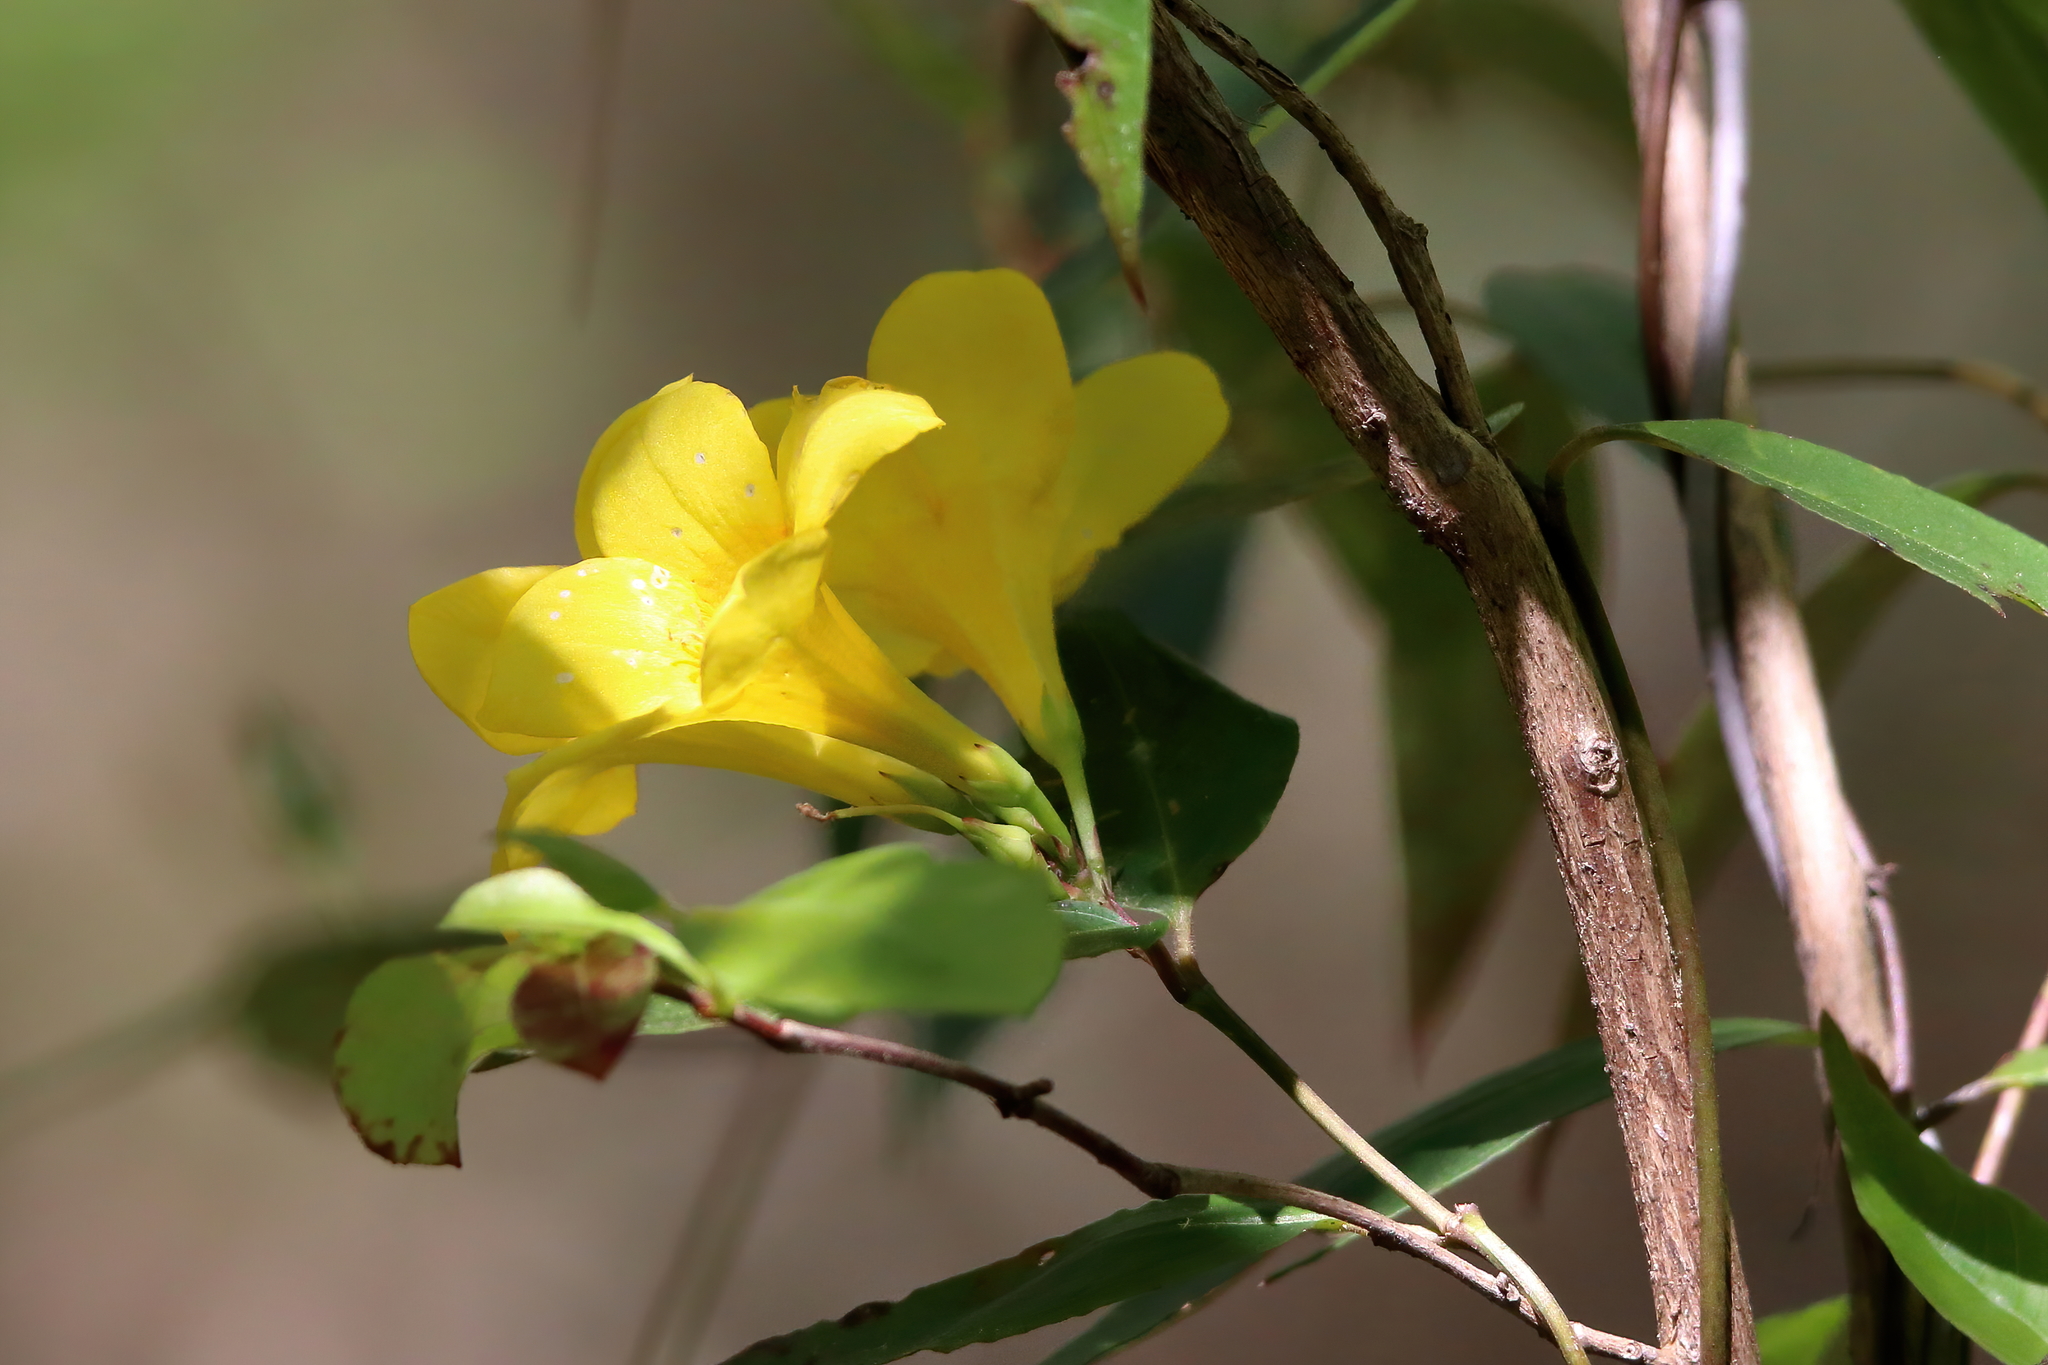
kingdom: Plantae
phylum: Tracheophyta
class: Magnoliopsida
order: Gentianales
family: Gelsemiaceae
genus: Gelsemium
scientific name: Gelsemium sempervirens
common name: Carolina-jasmine
